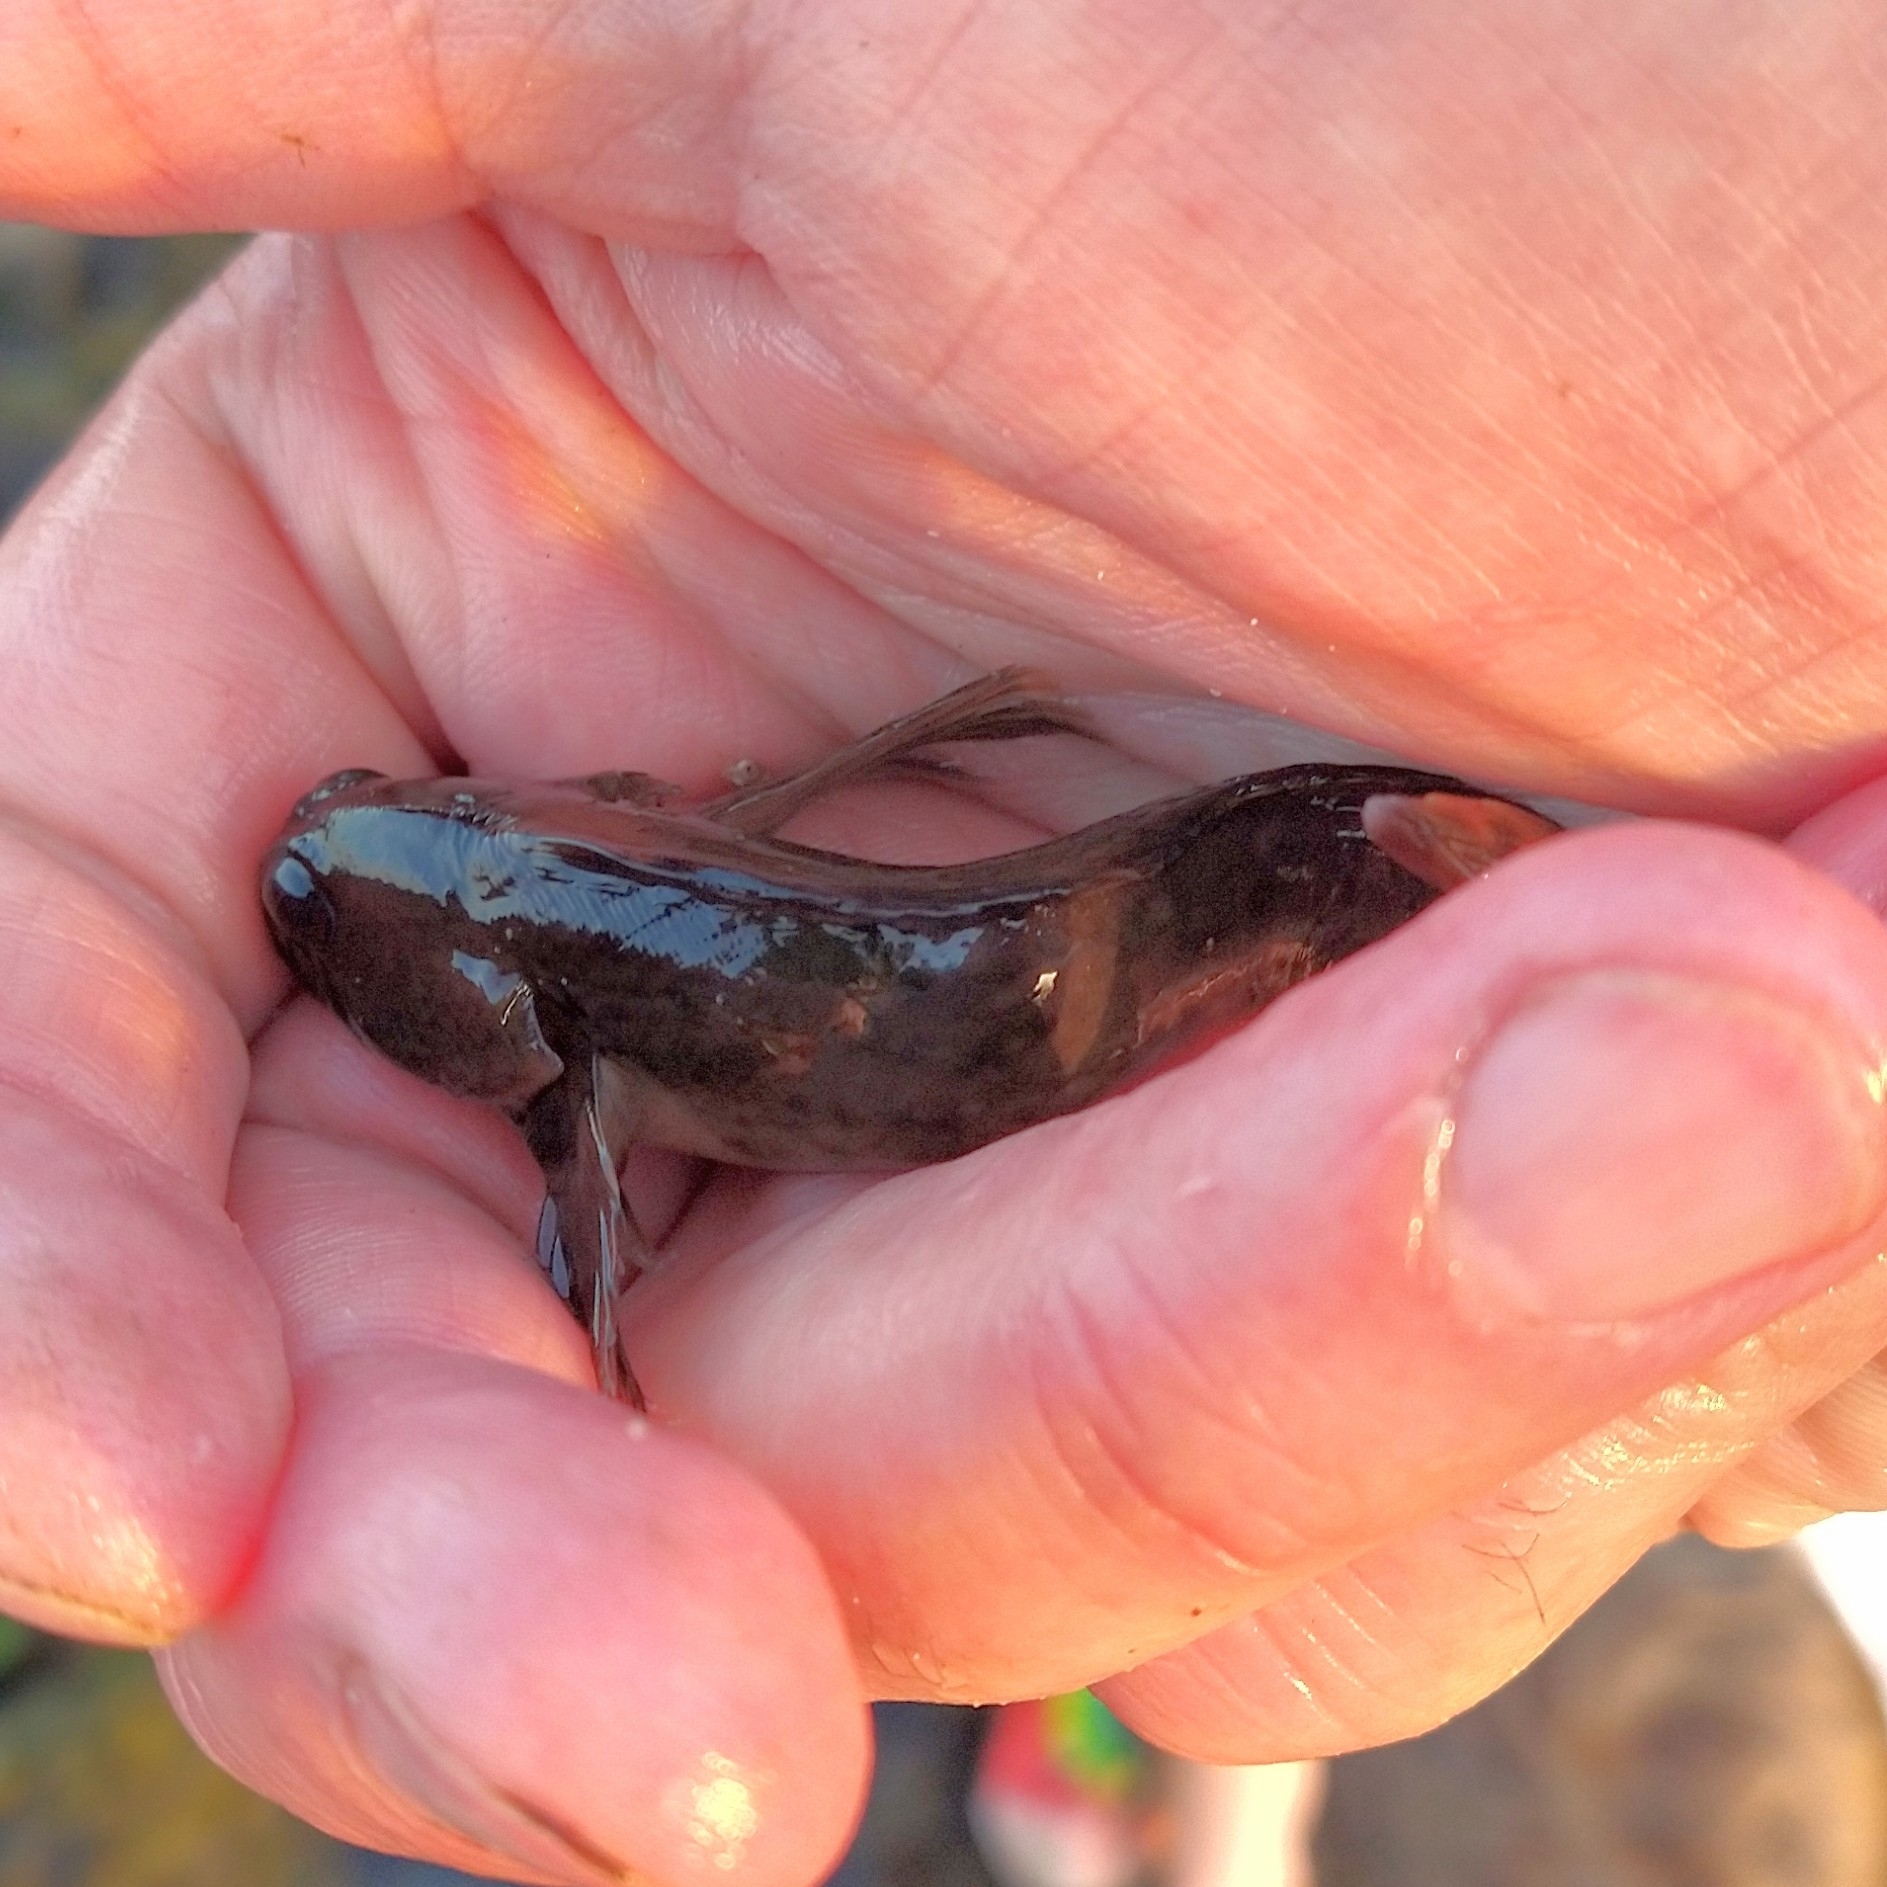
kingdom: Animalia
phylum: Chordata
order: Perciformes
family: Blenniidae
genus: Lipophrys
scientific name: Lipophrys pholis
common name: Shanny
